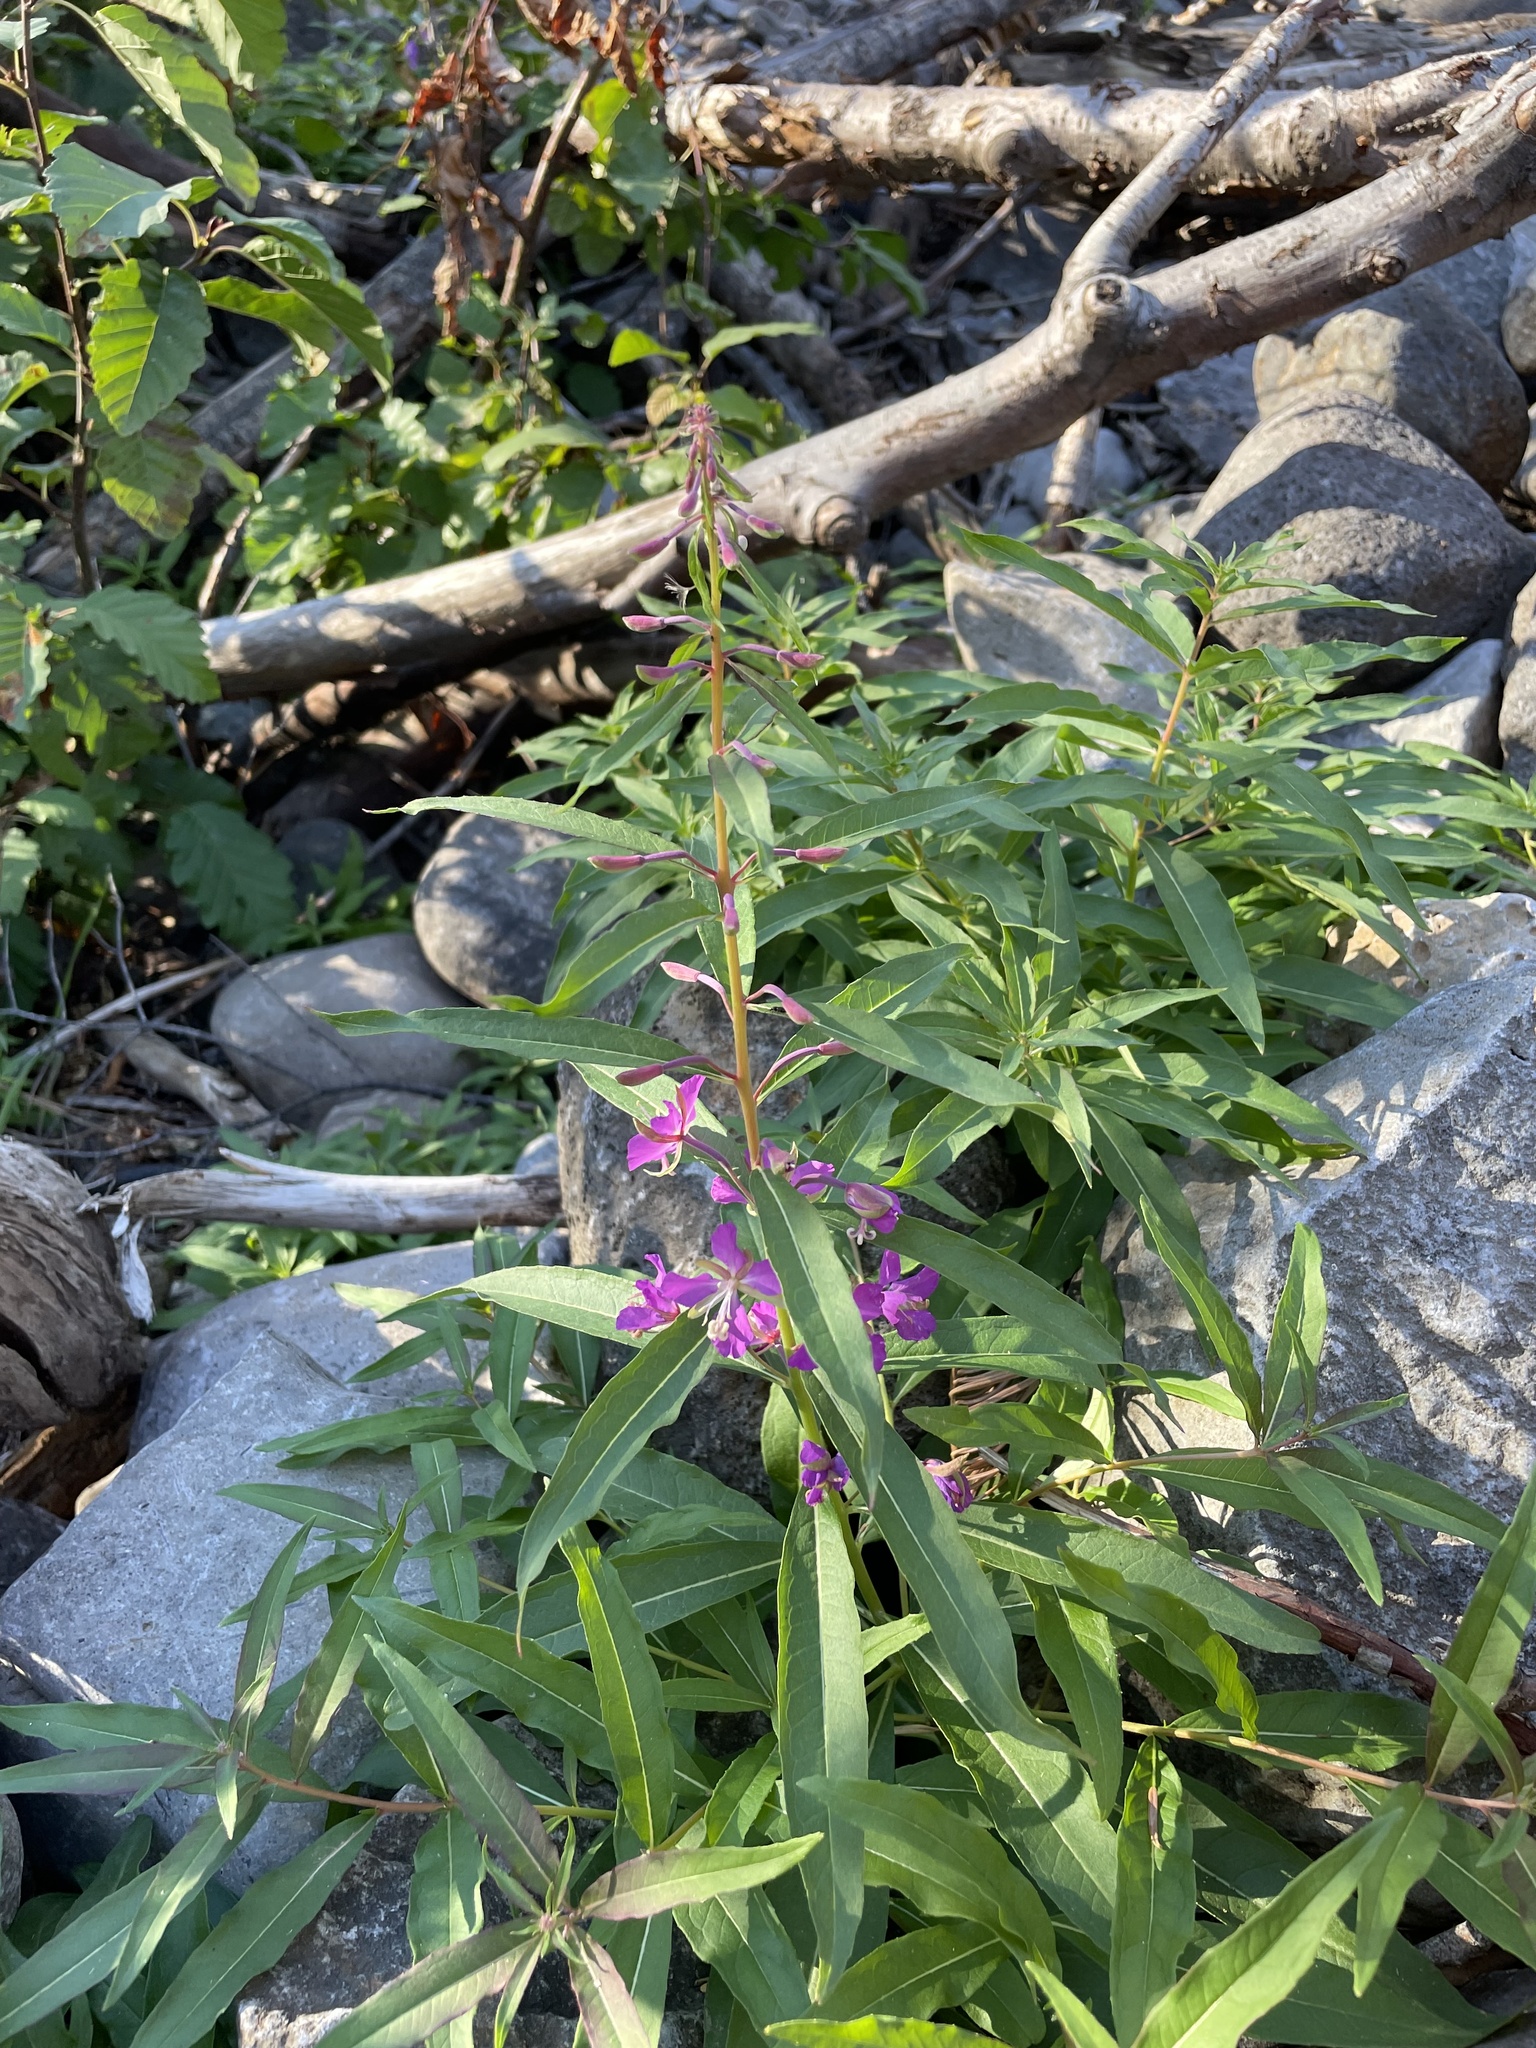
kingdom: Plantae
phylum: Tracheophyta
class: Magnoliopsida
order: Myrtales
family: Onagraceae
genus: Chamaenerion
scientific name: Chamaenerion angustifolium
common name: Fireweed
